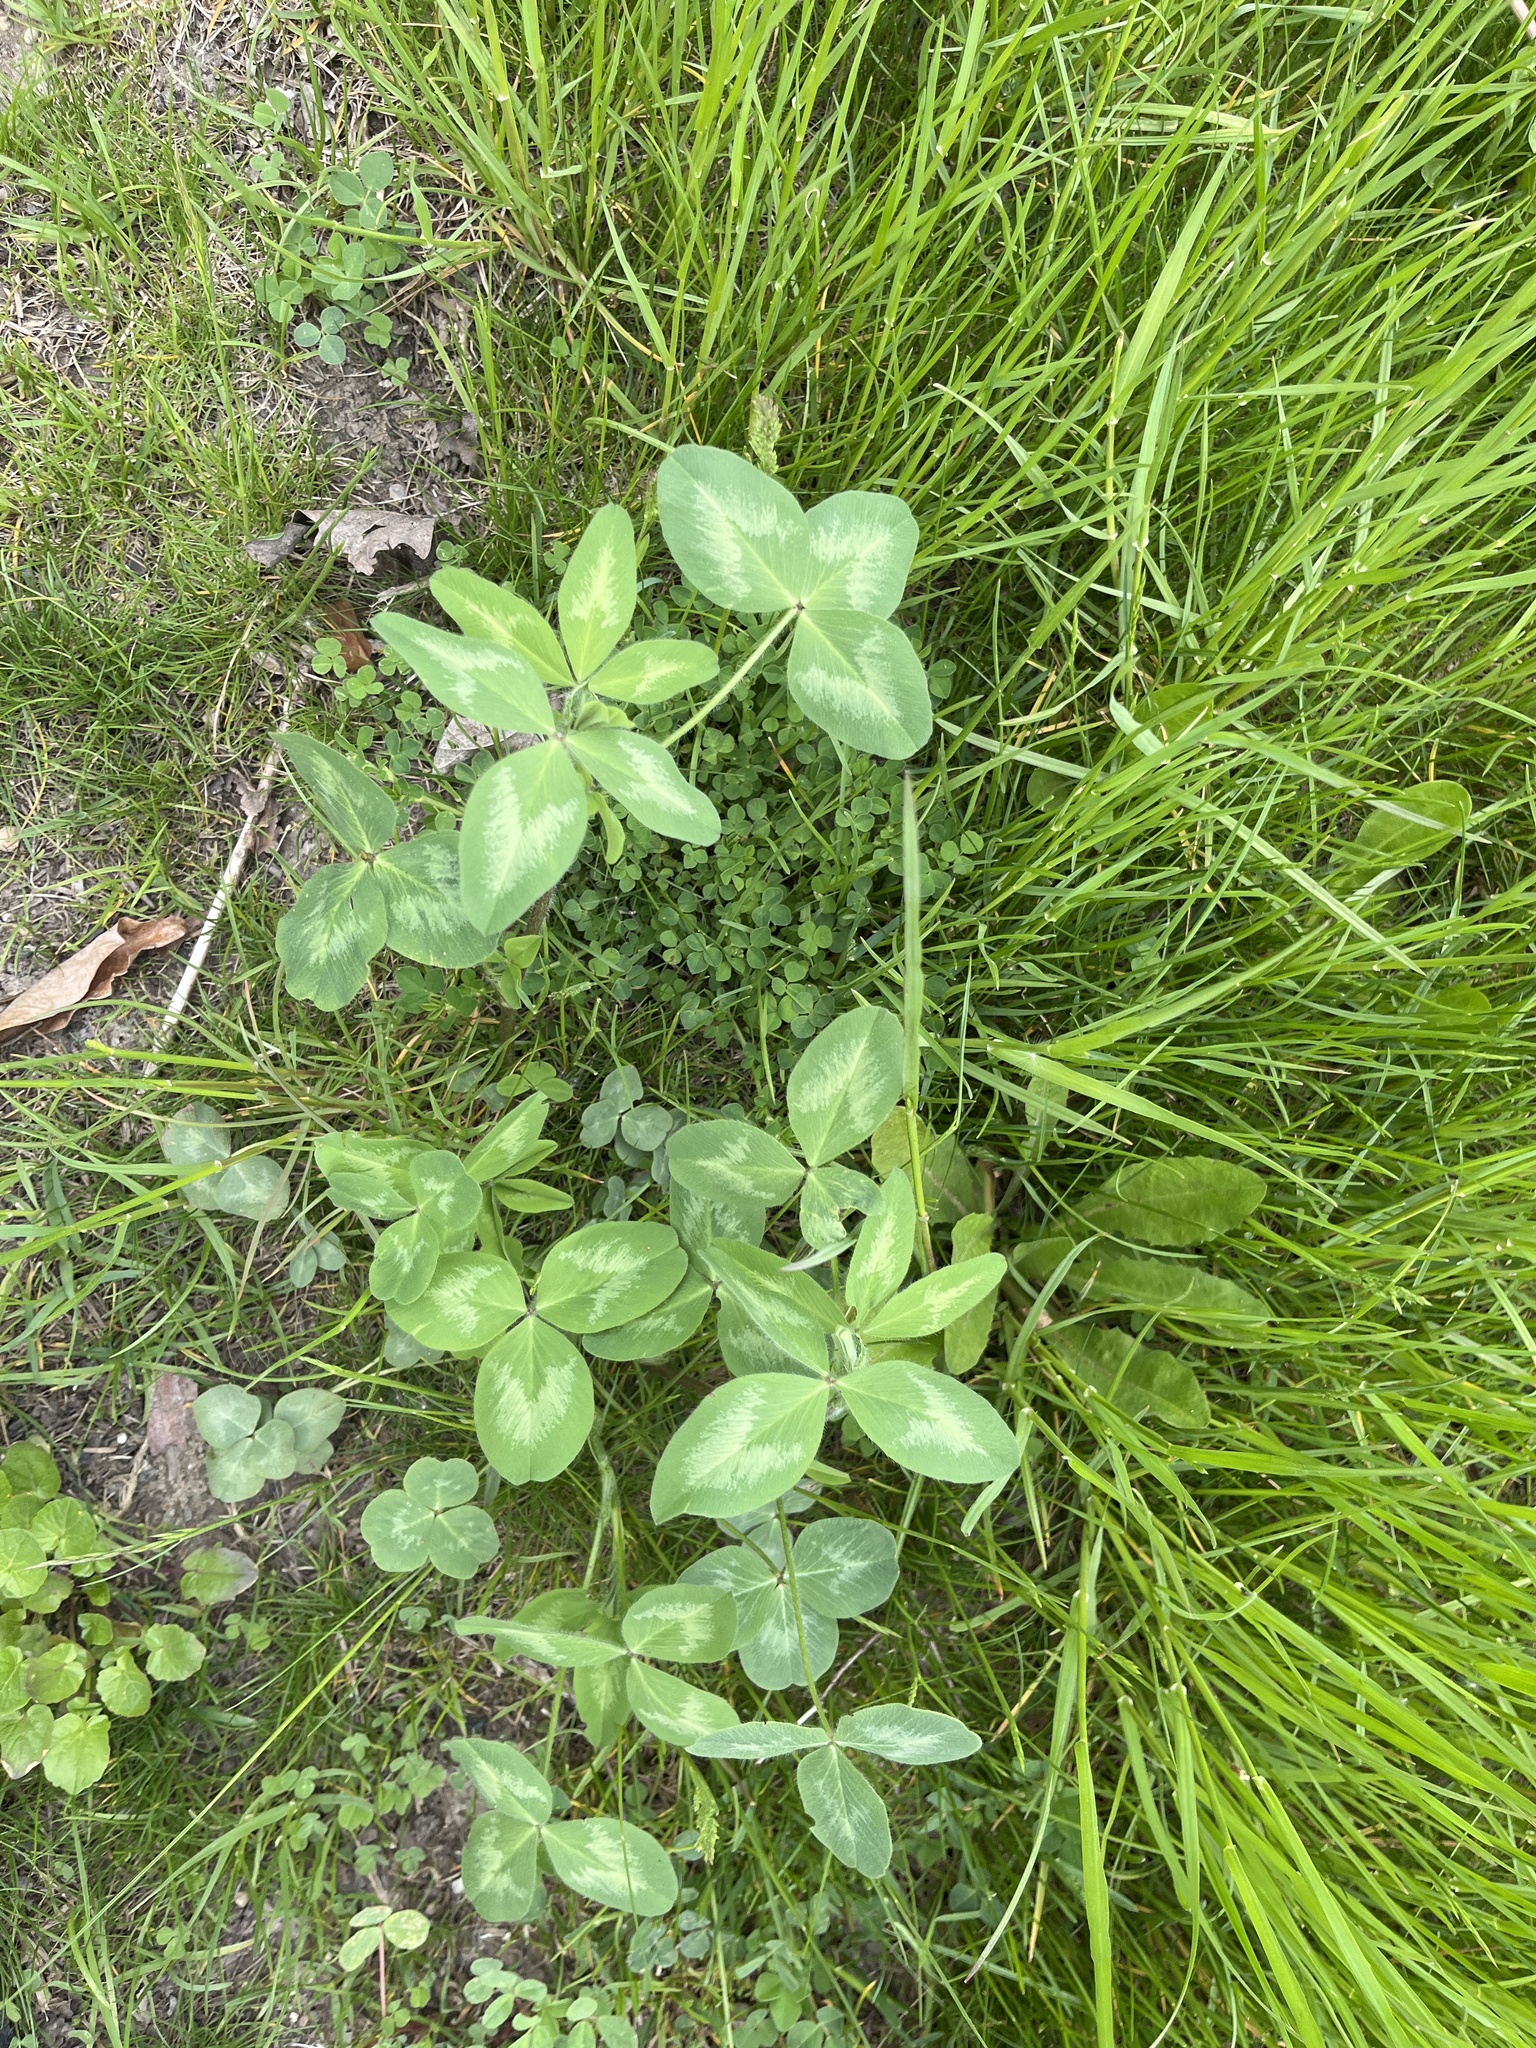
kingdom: Plantae
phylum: Tracheophyta
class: Magnoliopsida
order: Fabales
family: Fabaceae
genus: Trifolium
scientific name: Trifolium pratense
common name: Red clover
